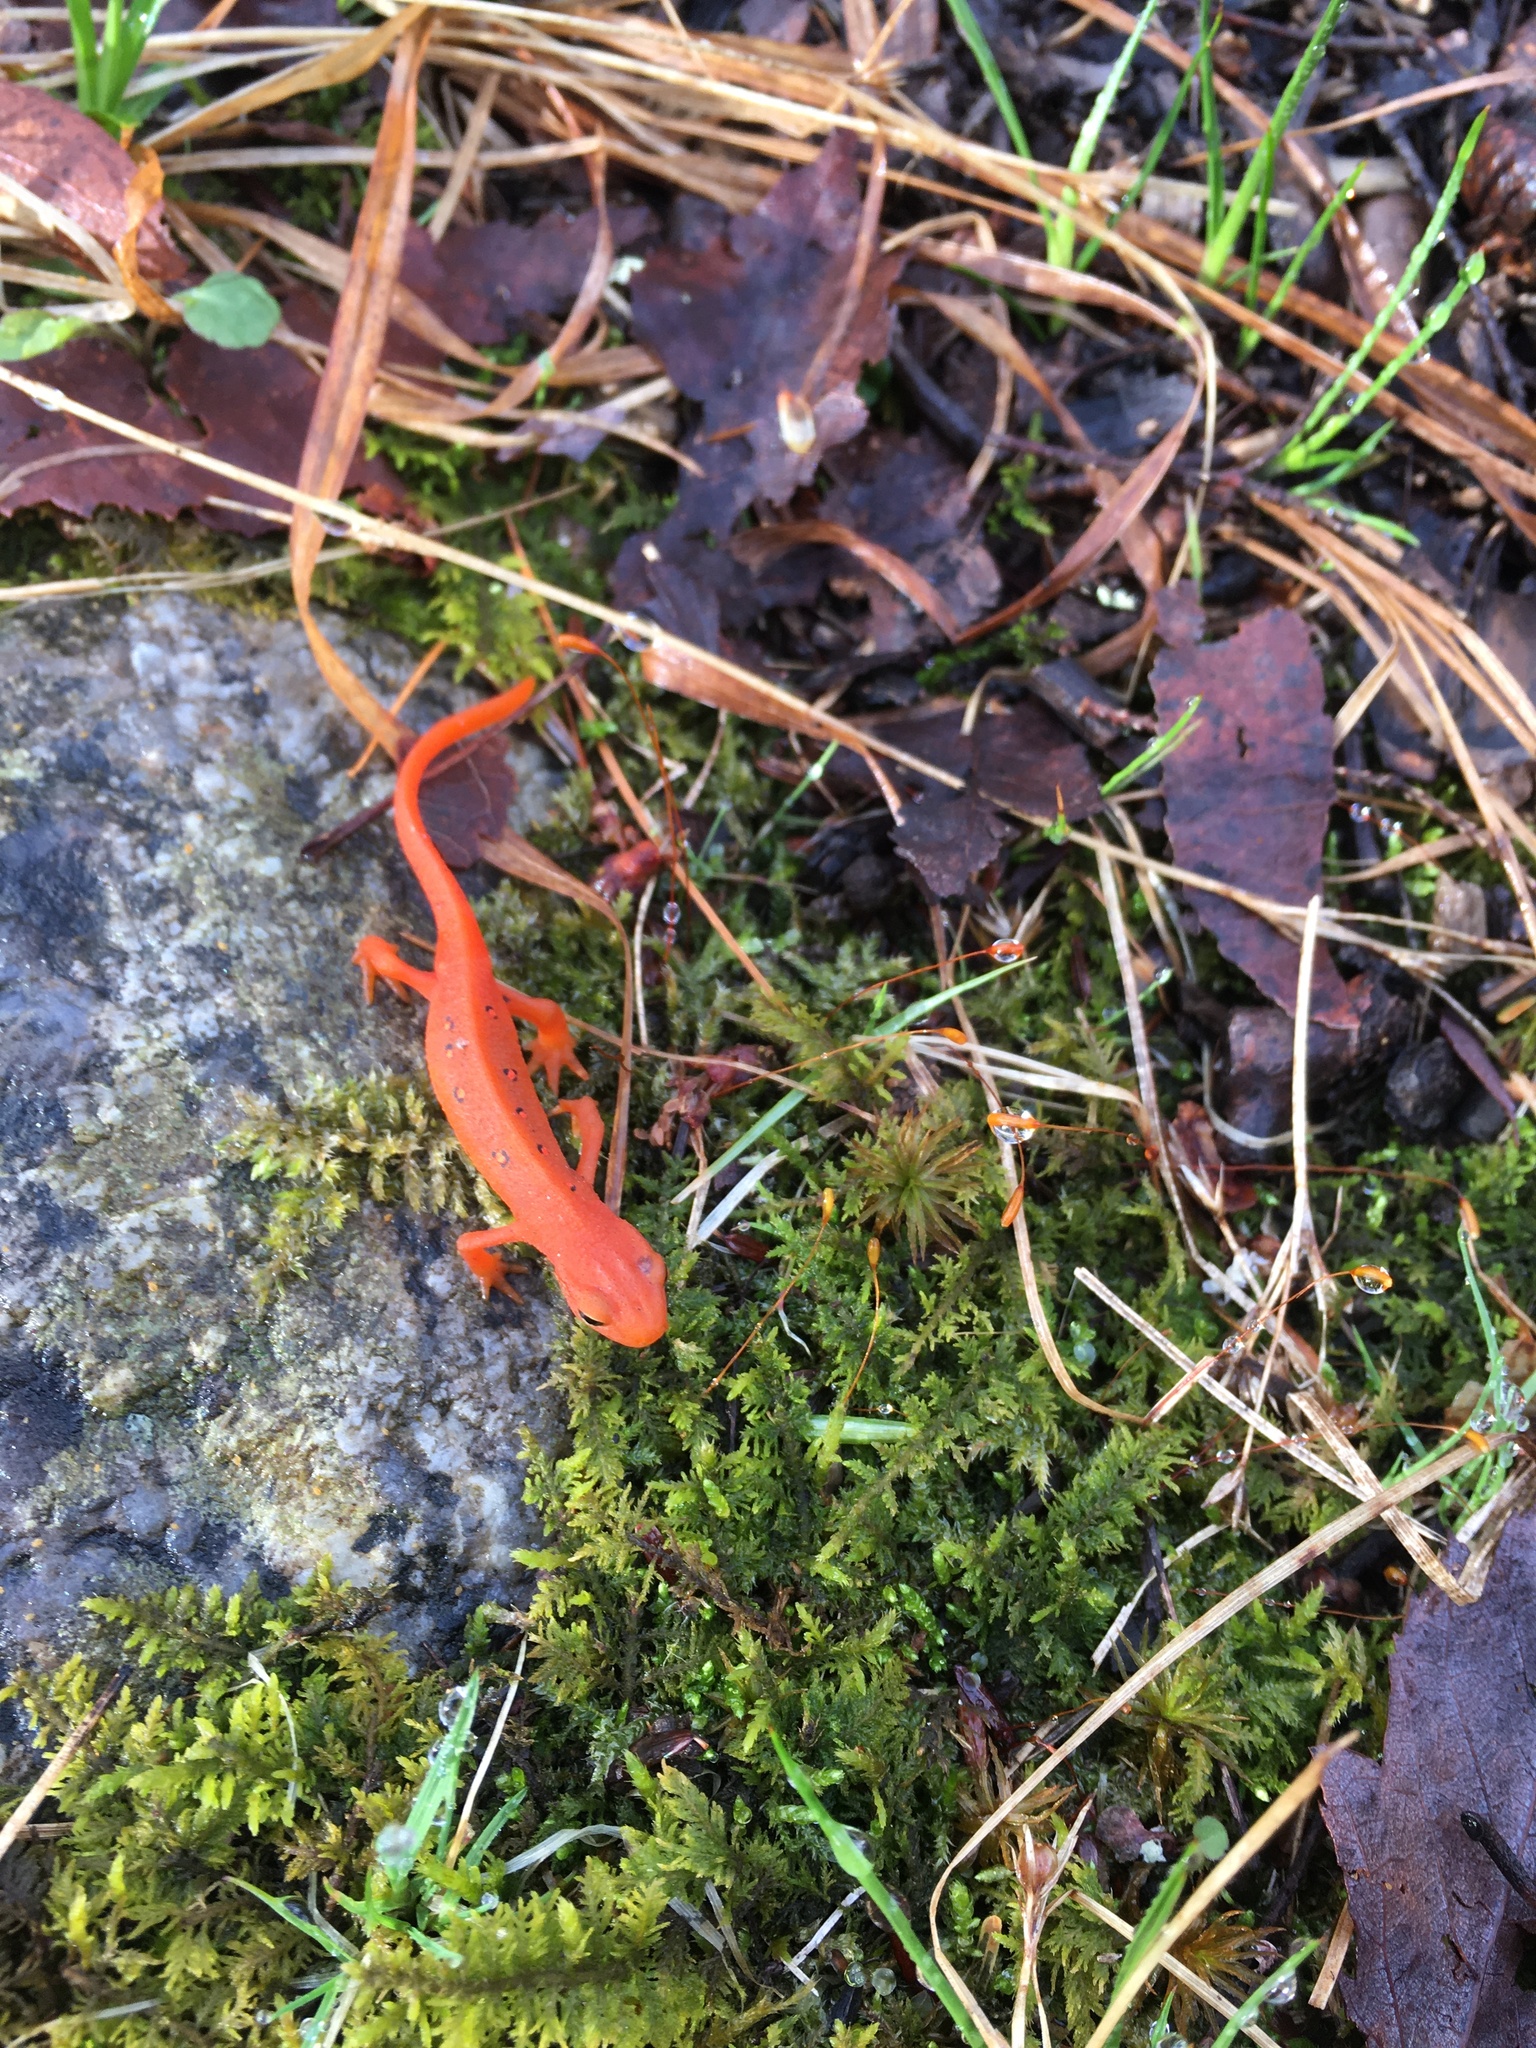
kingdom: Animalia
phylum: Chordata
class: Amphibia
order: Caudata
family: Salamandridae
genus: Notophthalmus
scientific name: Notophthalmus viridescens
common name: Eastern newt
